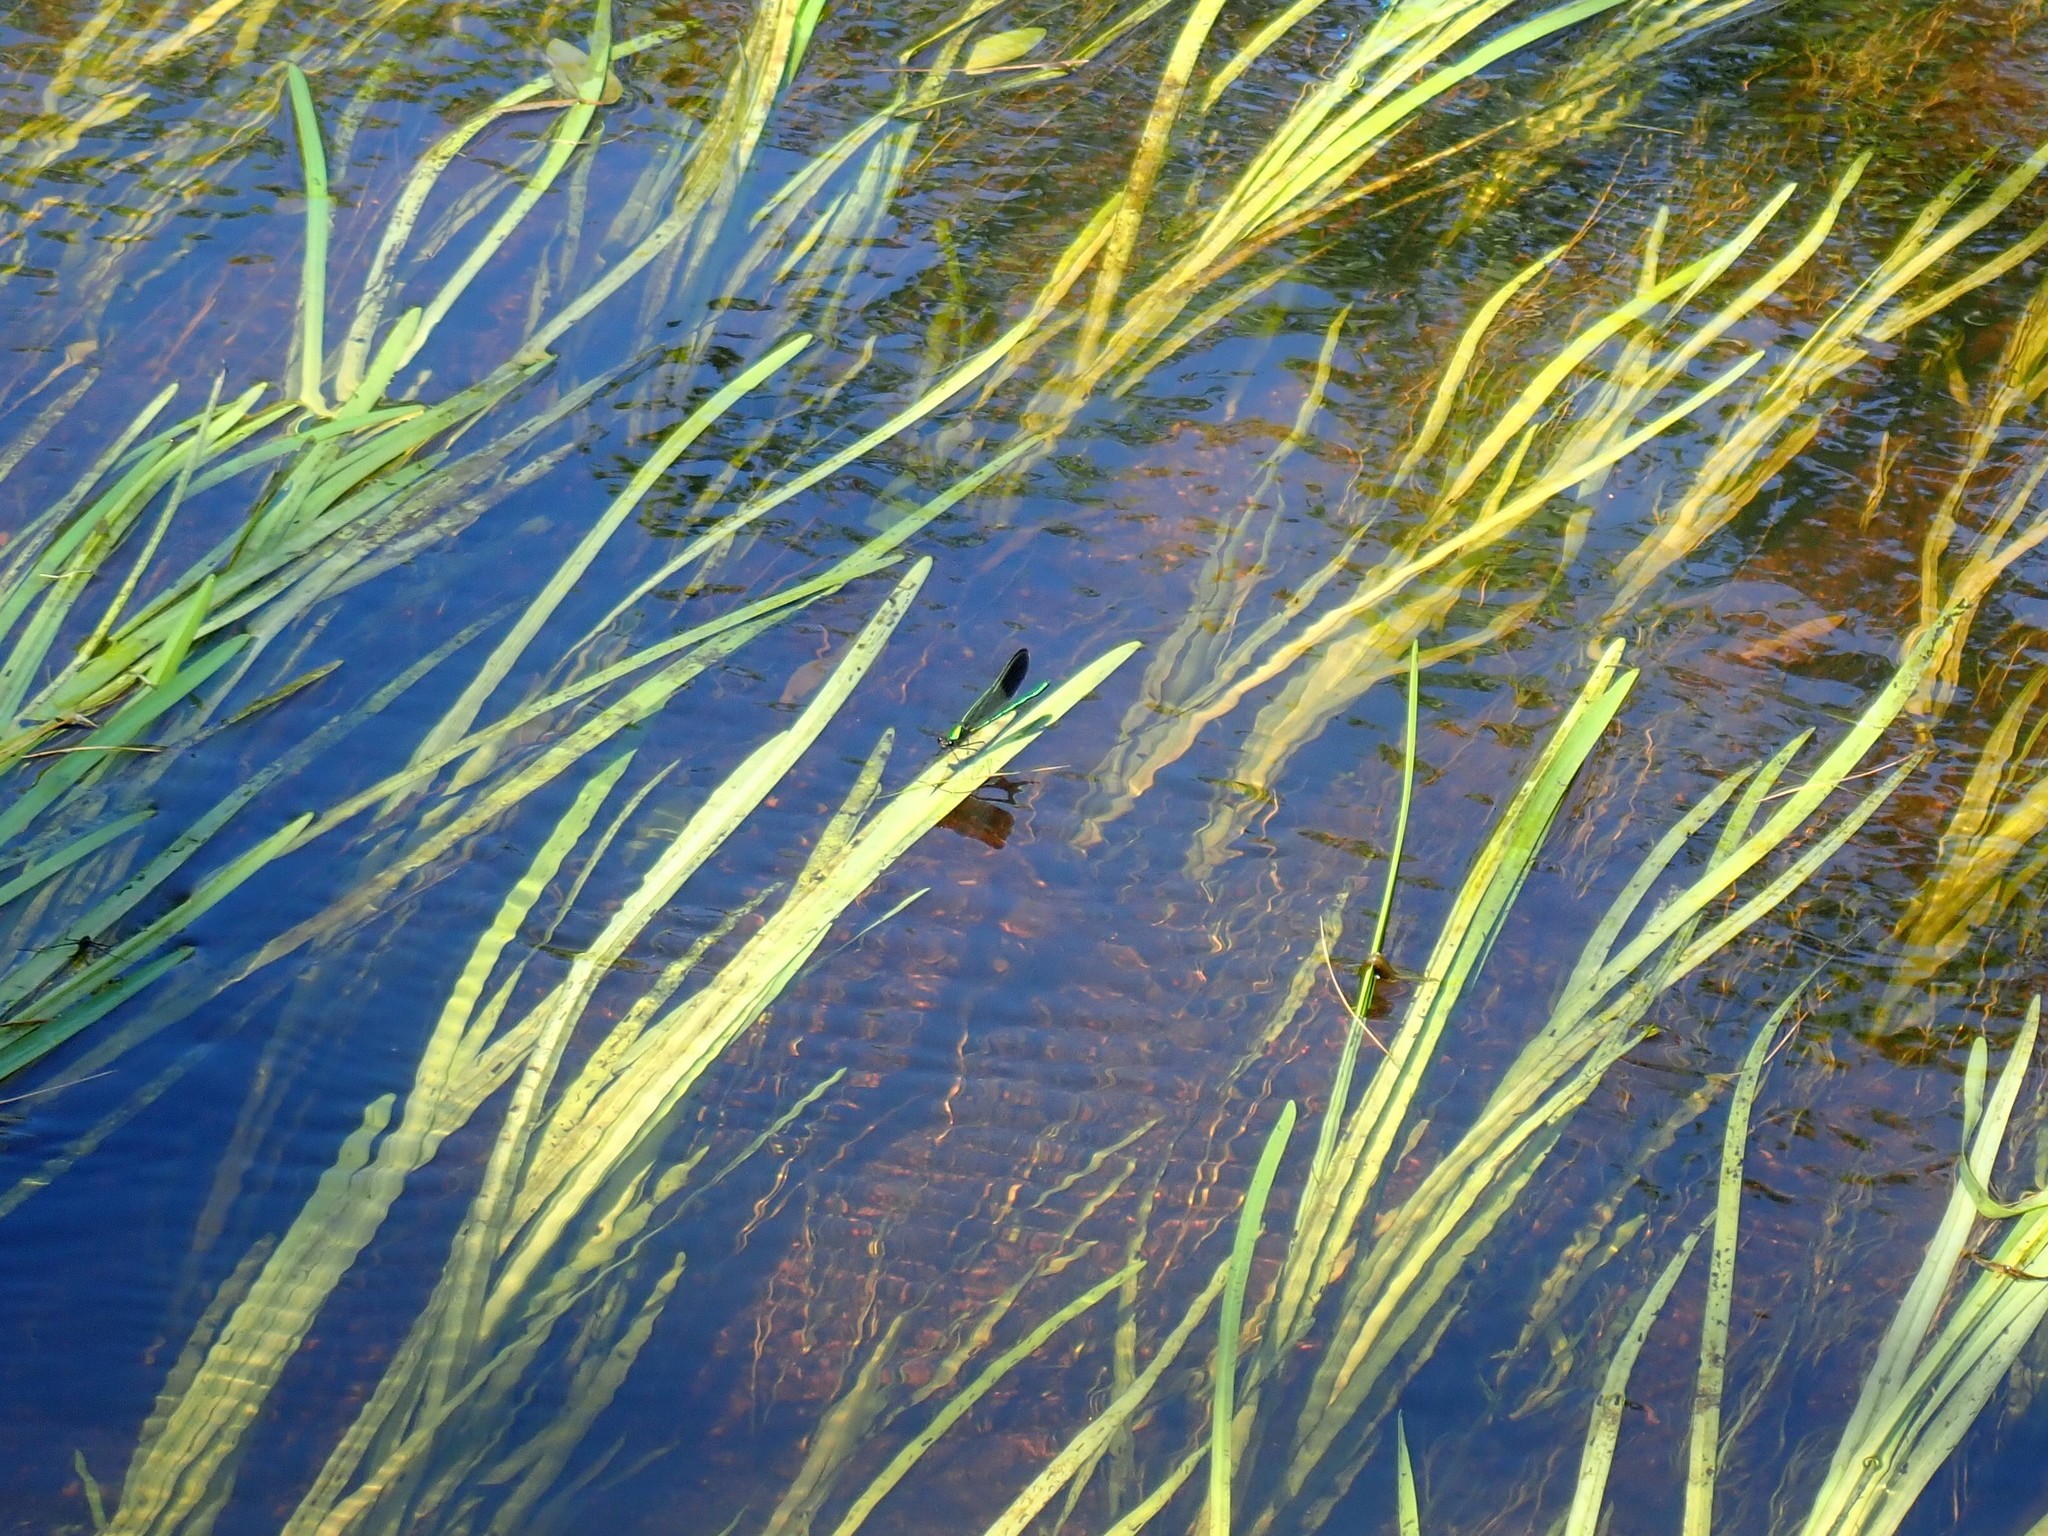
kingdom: Animalia
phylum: Arthropoda
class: Insecta
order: Odonata
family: Calopterygidae
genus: Calopteryx
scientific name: Calopteryx aequabilis
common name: River jewelwing
